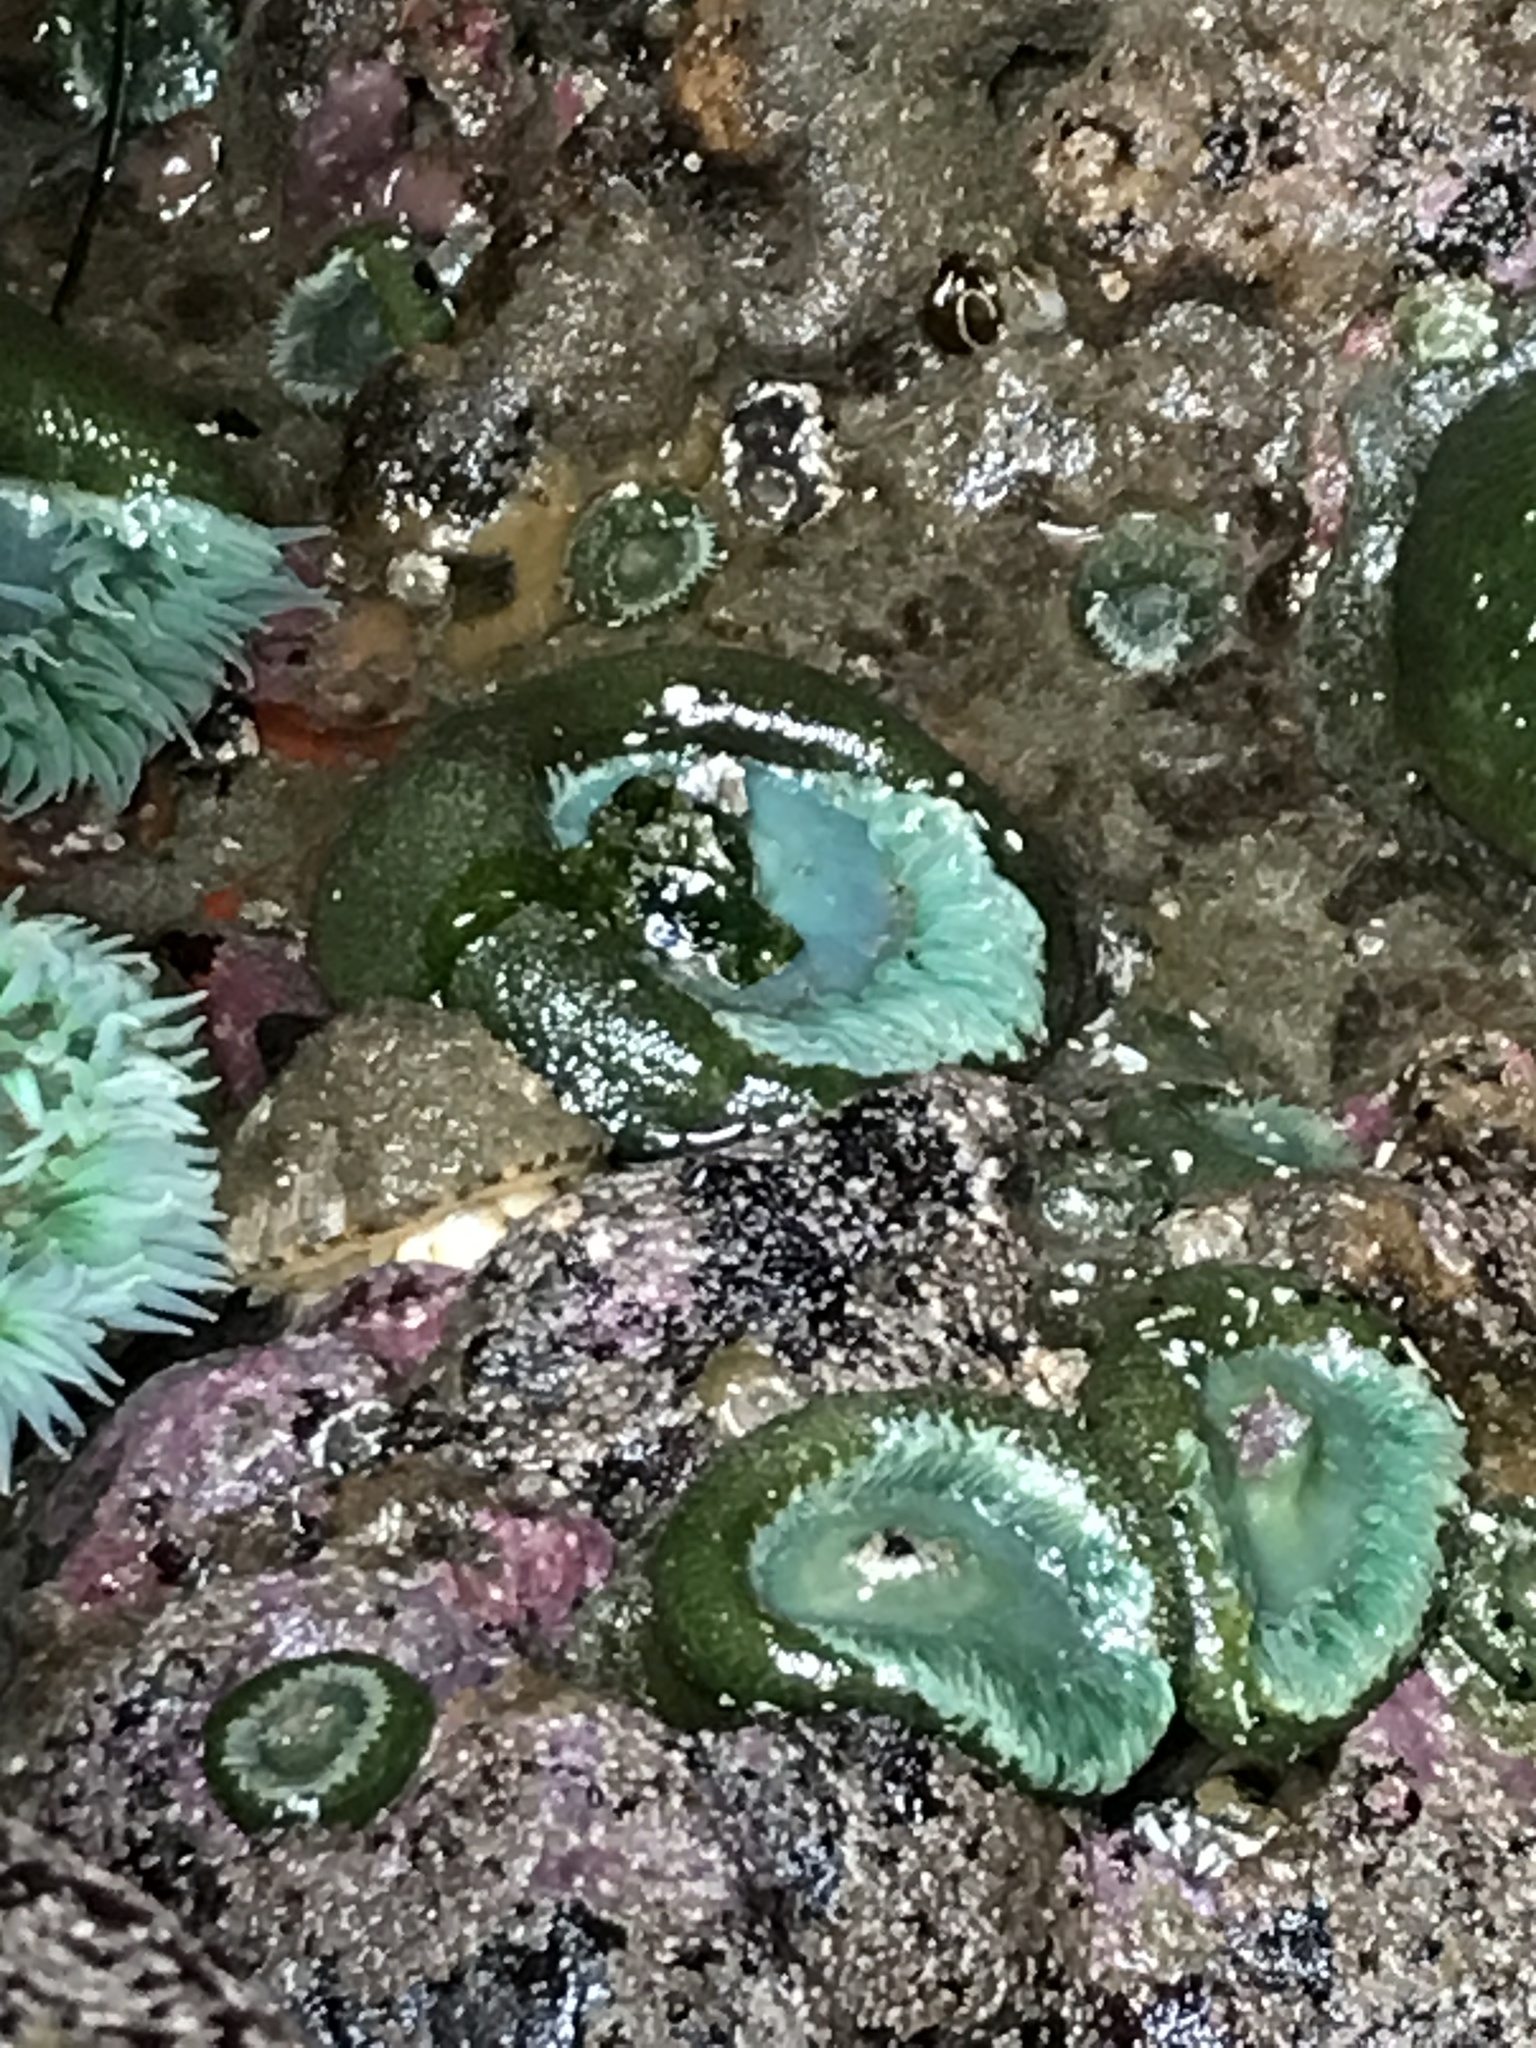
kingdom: Animalia
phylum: Mollusca
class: Gastropoda
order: Lepetellida
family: Fissurellidae
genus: Diodora
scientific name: Diodora aspera
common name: Rough keyhole limpet
